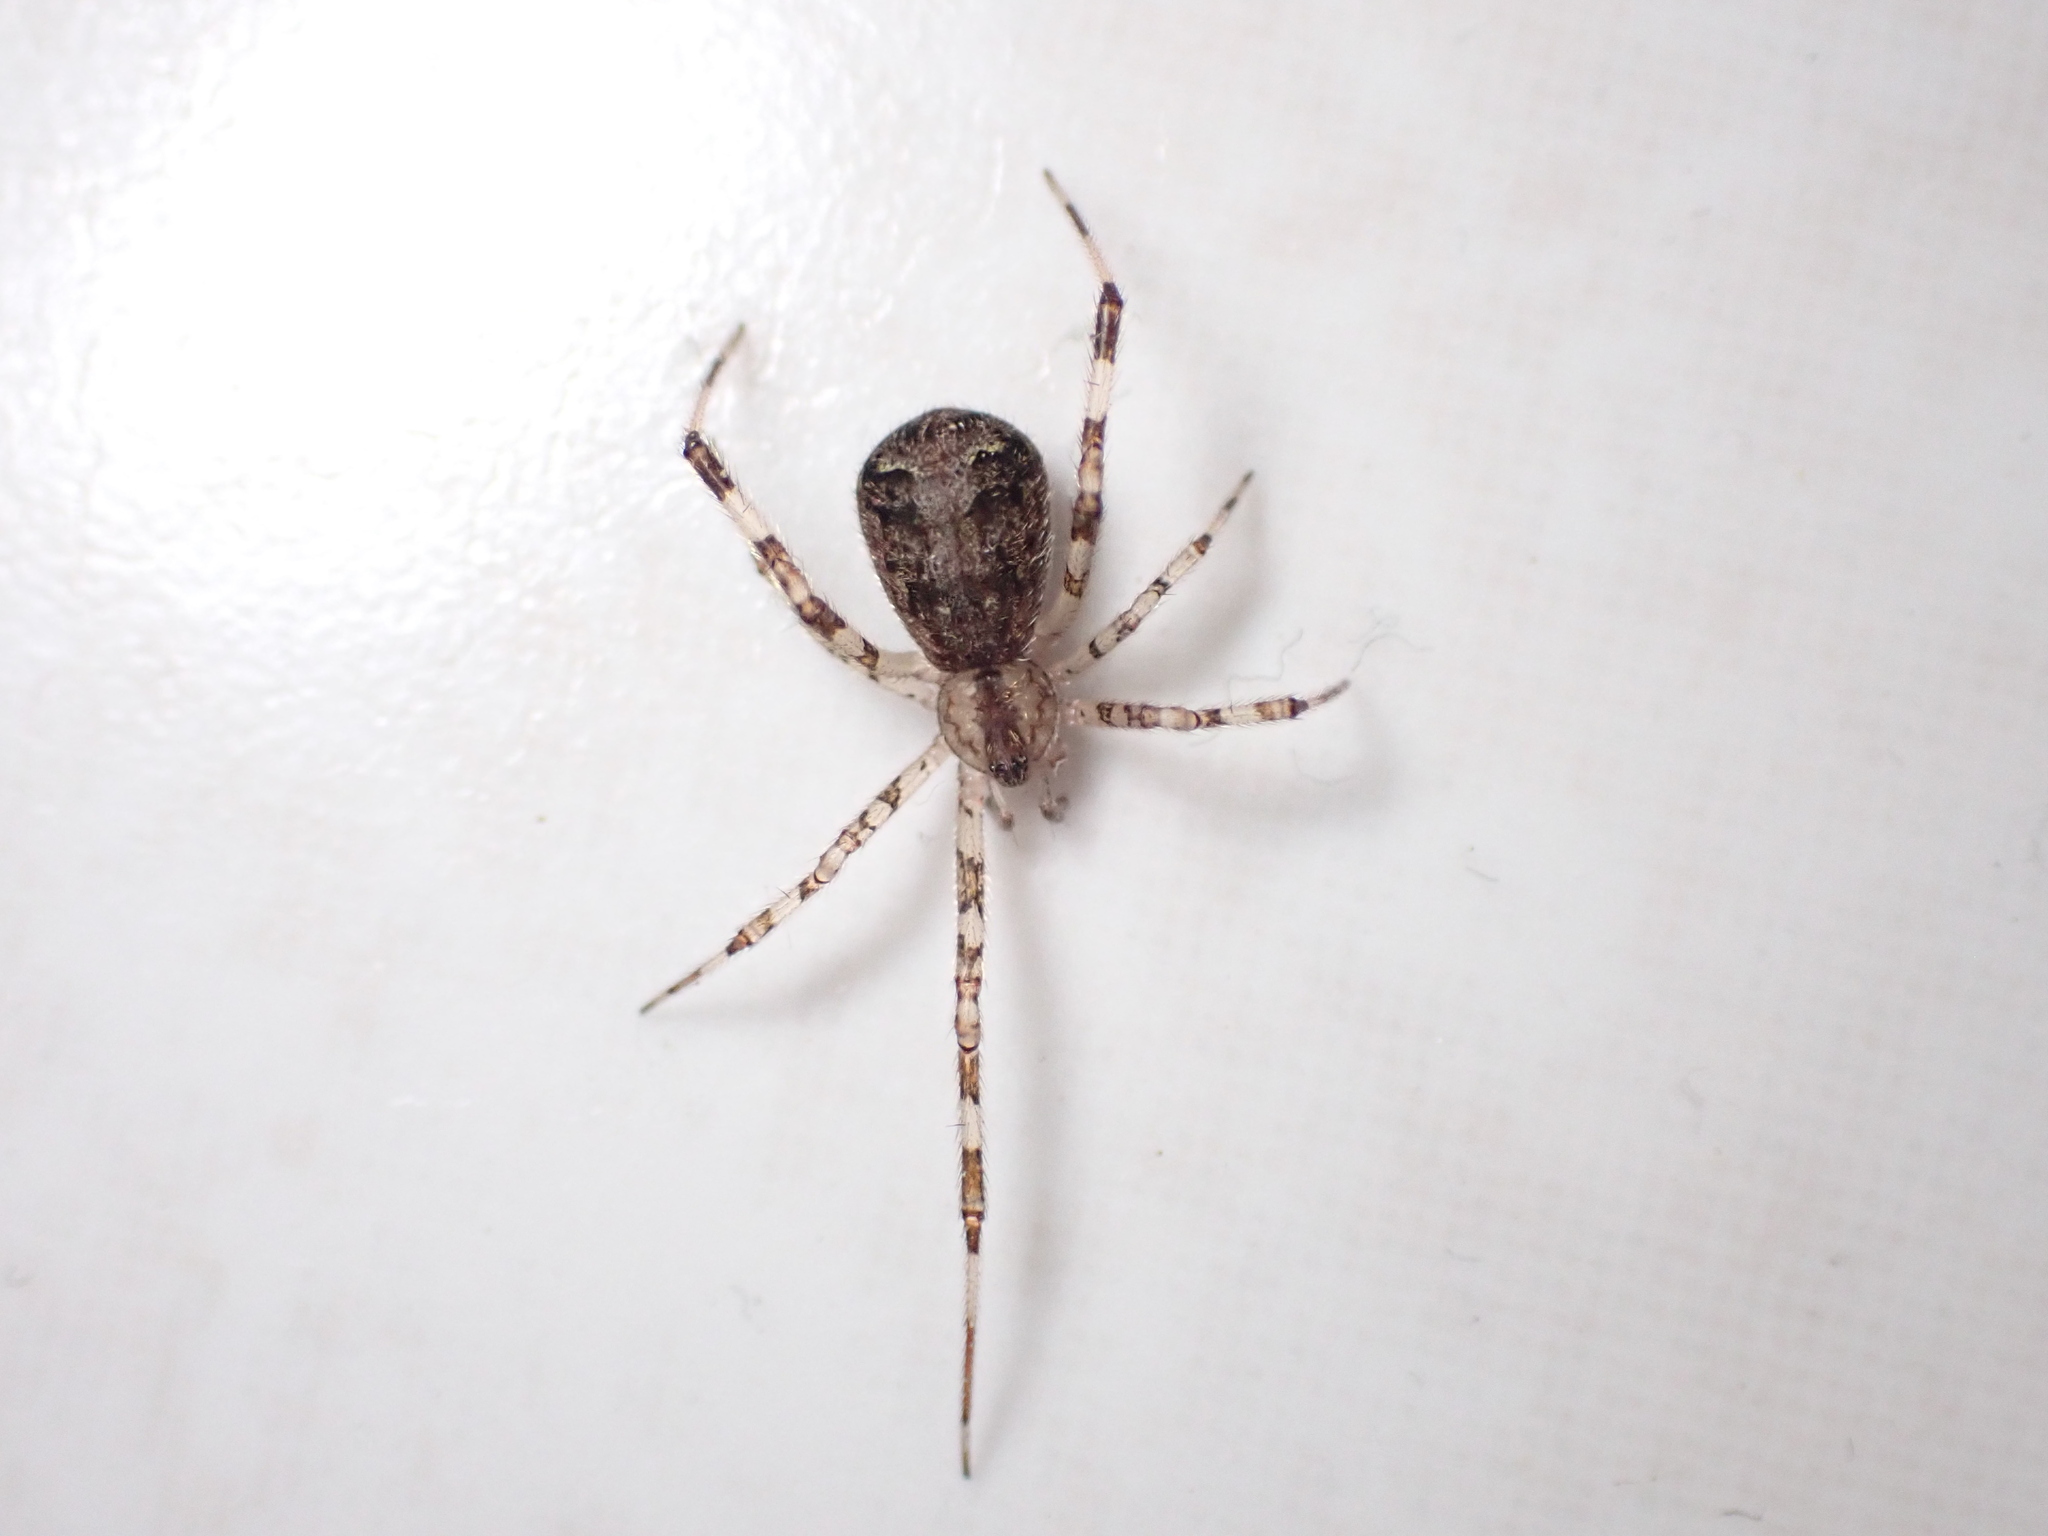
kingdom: Animalia
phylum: Arthropoda
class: Arachnida
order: Araneae
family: Theridiidae
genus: Episinus
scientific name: Episinus maculipes
